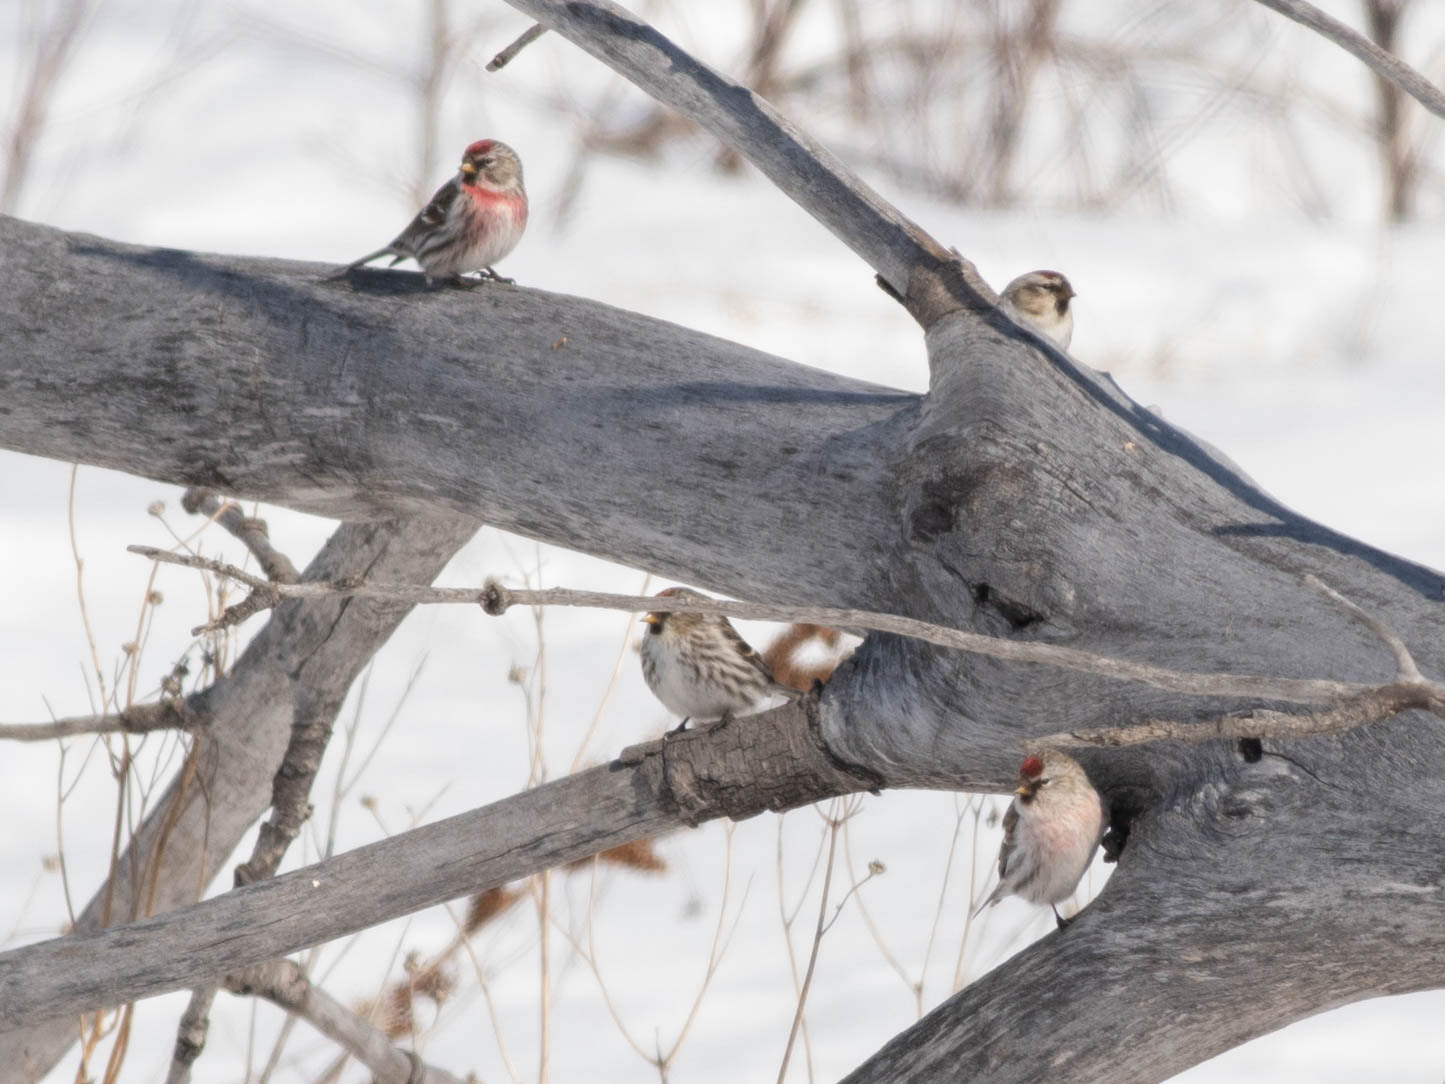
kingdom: Animalia
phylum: Chordata
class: Aves
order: Passeriformes
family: Fringillidae
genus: Acanthis
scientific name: Acanthis flammea
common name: Common redpoll
